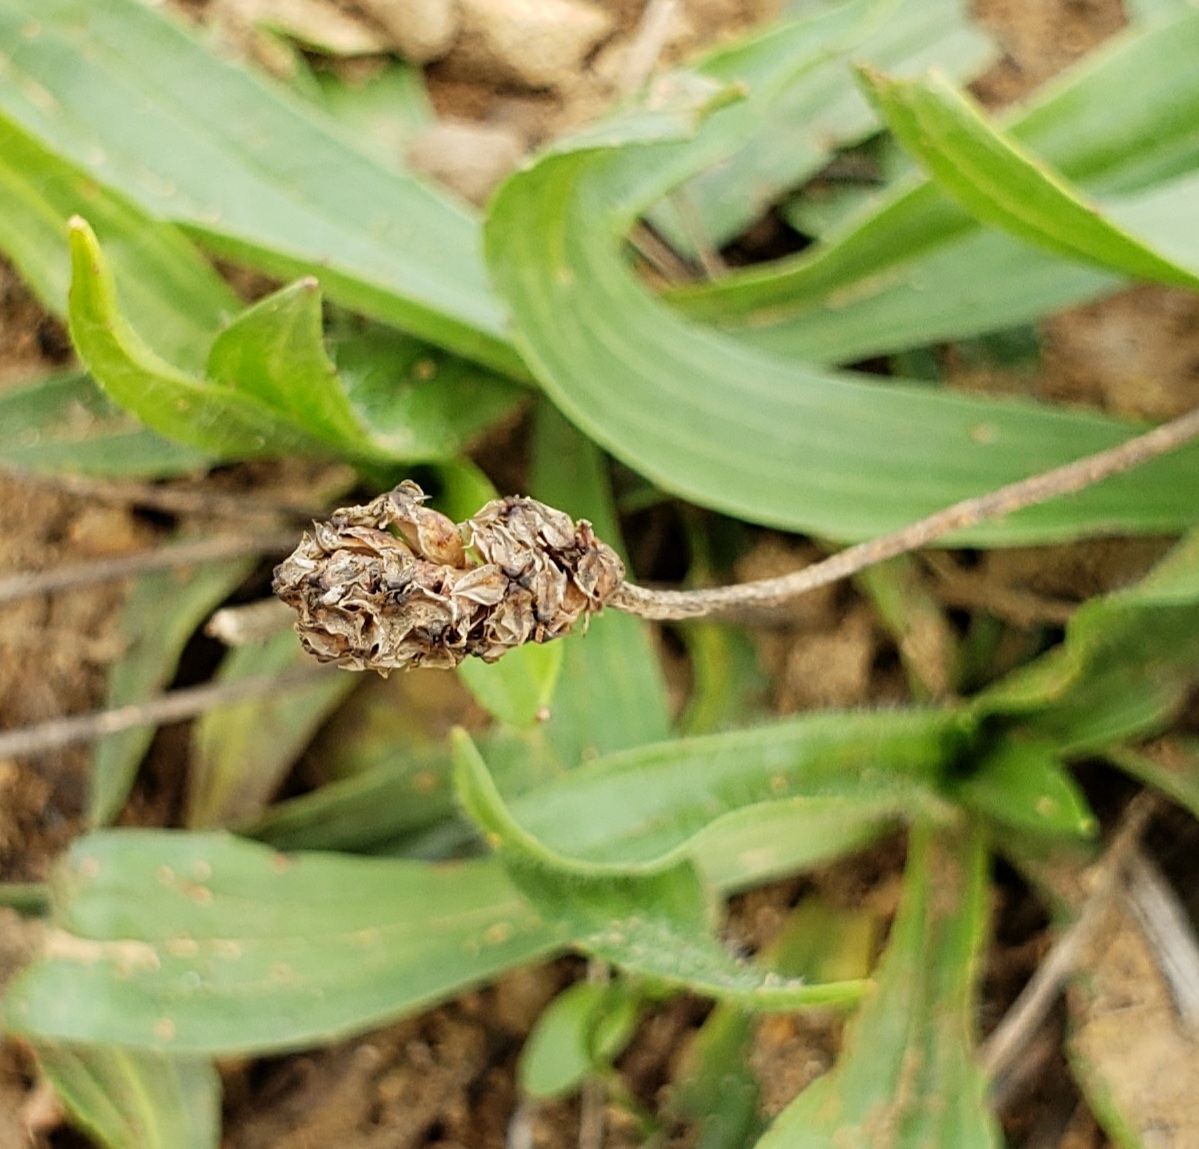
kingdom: Plantae
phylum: Tracheophyta
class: Magnoliopsida
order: Lamiales
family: Plantaginaceae
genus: Plantago
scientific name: Plantago lanceolata
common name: Ribwort plantain
